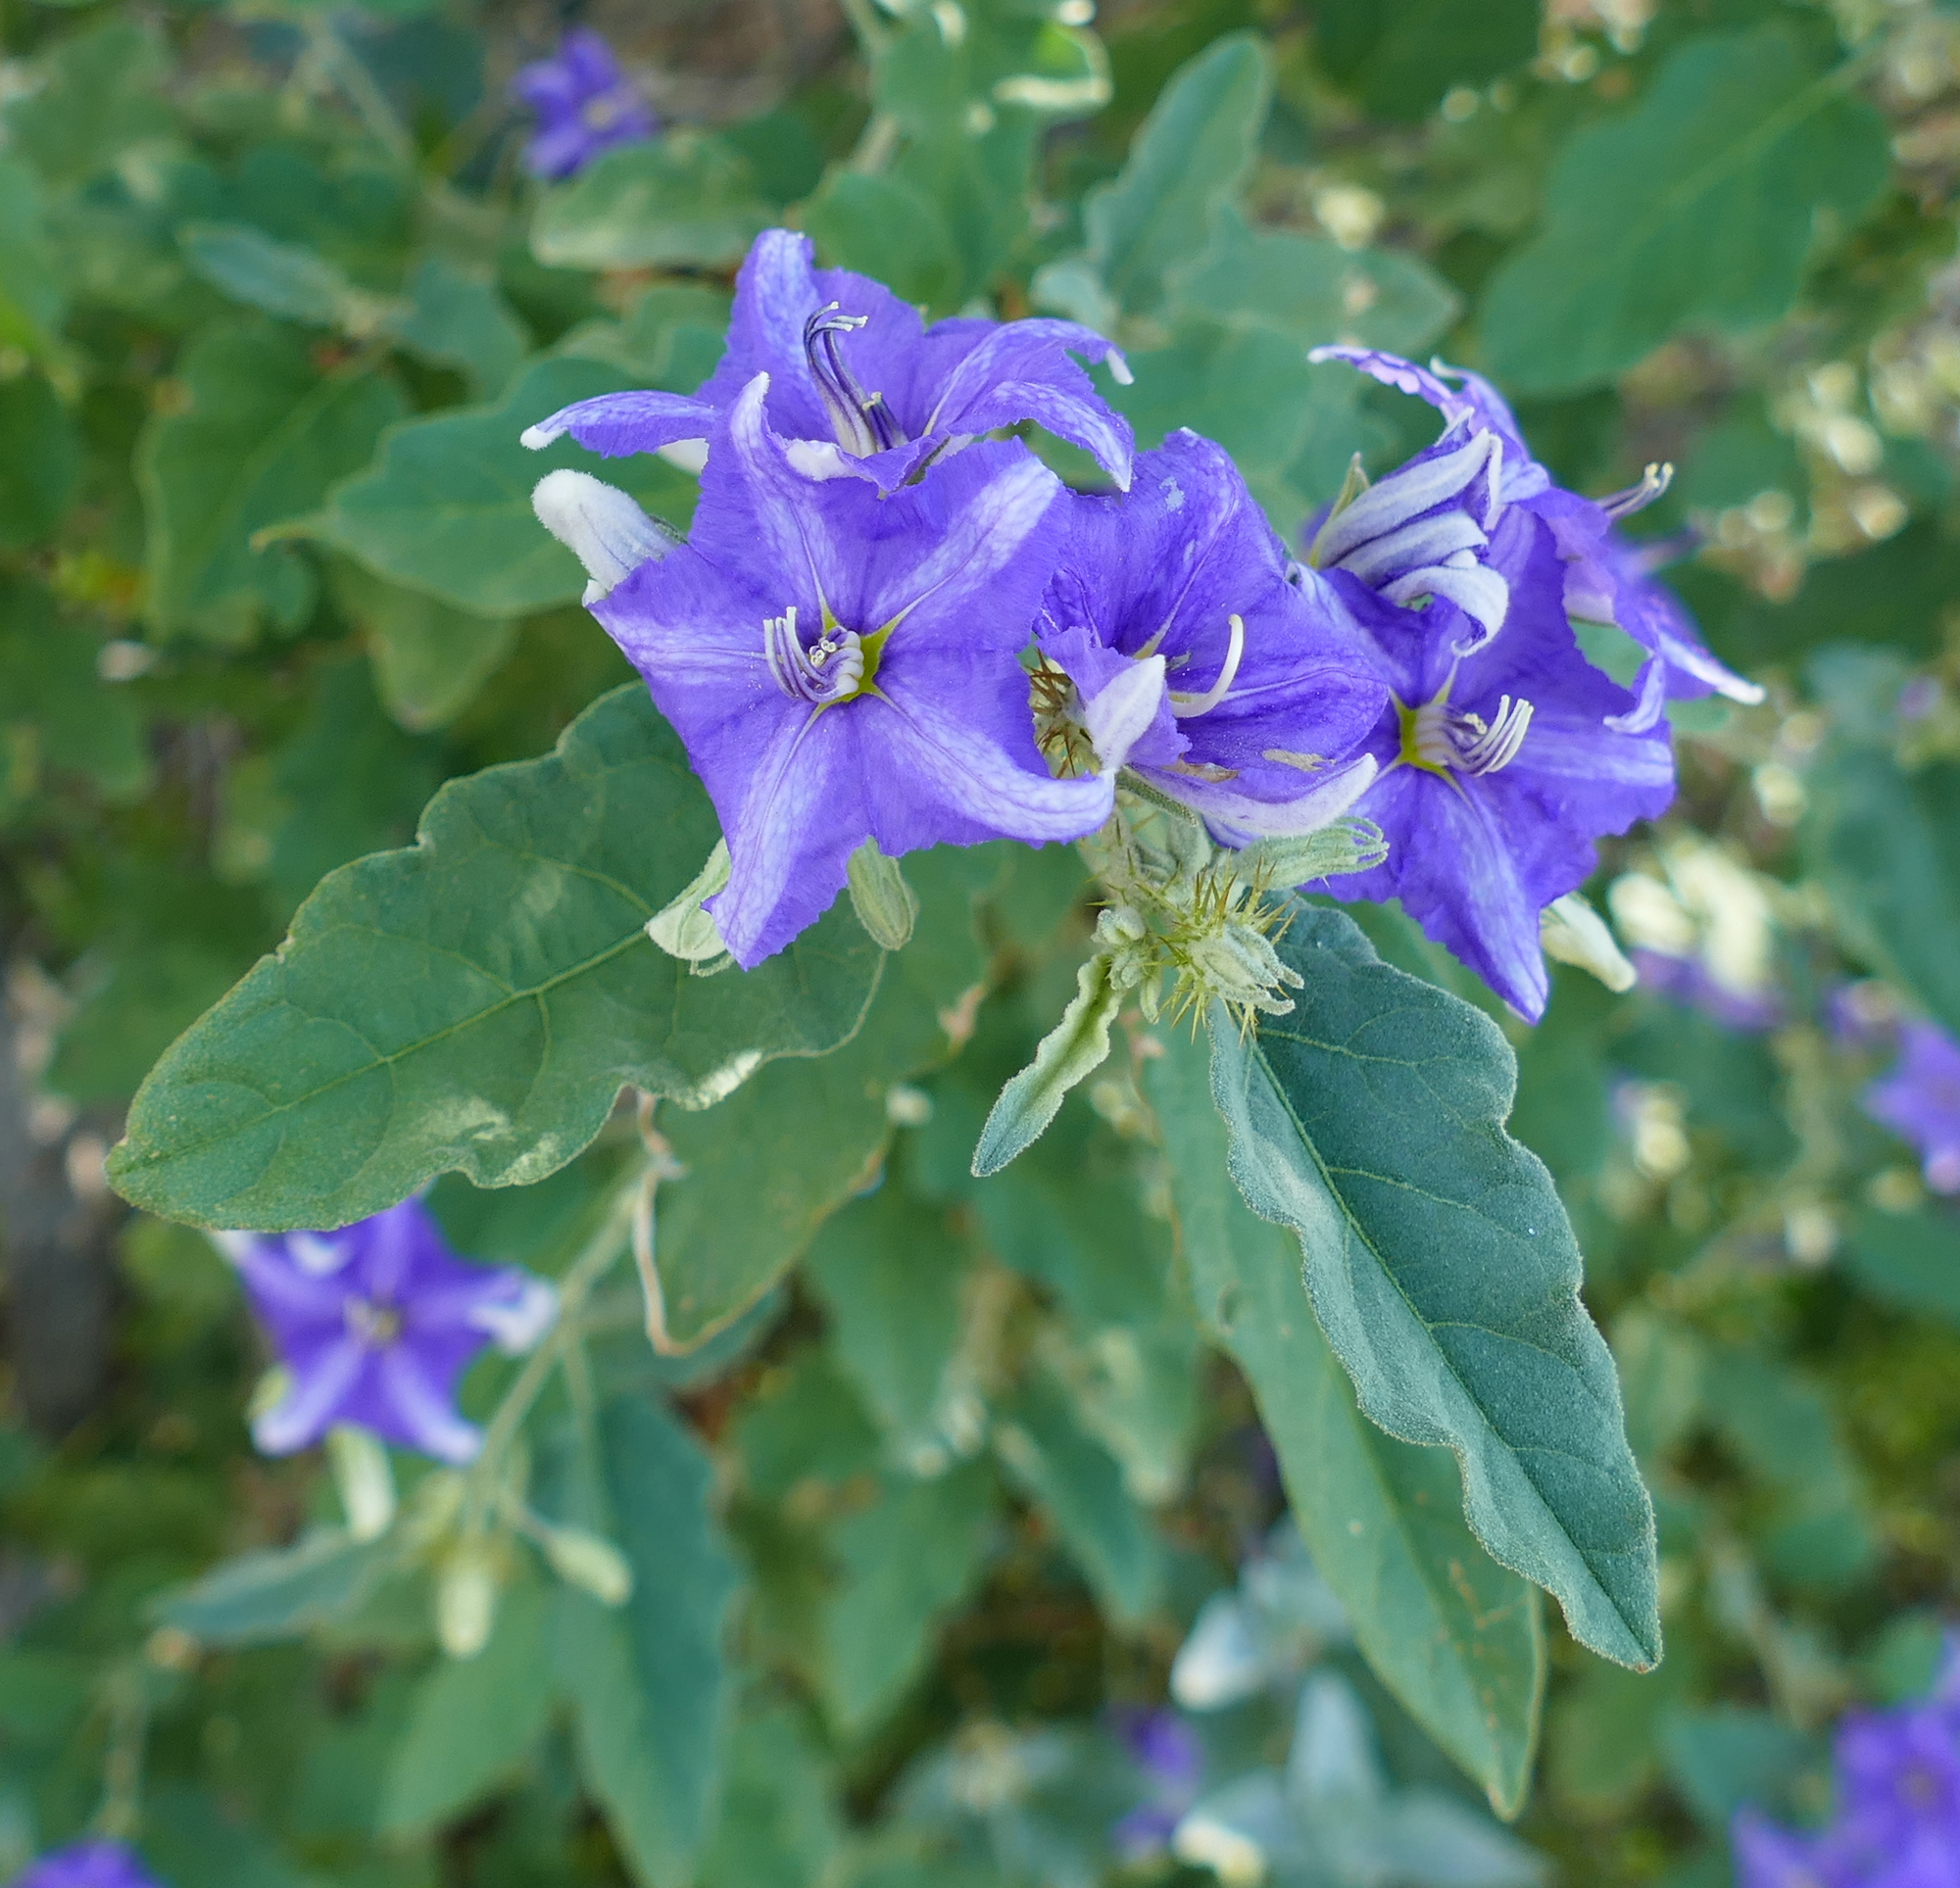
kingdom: Plantae
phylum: Tracheophyta
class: Magnoliopsida
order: Solanales
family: Solanaceae
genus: Solanum
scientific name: Solanum houstonii
